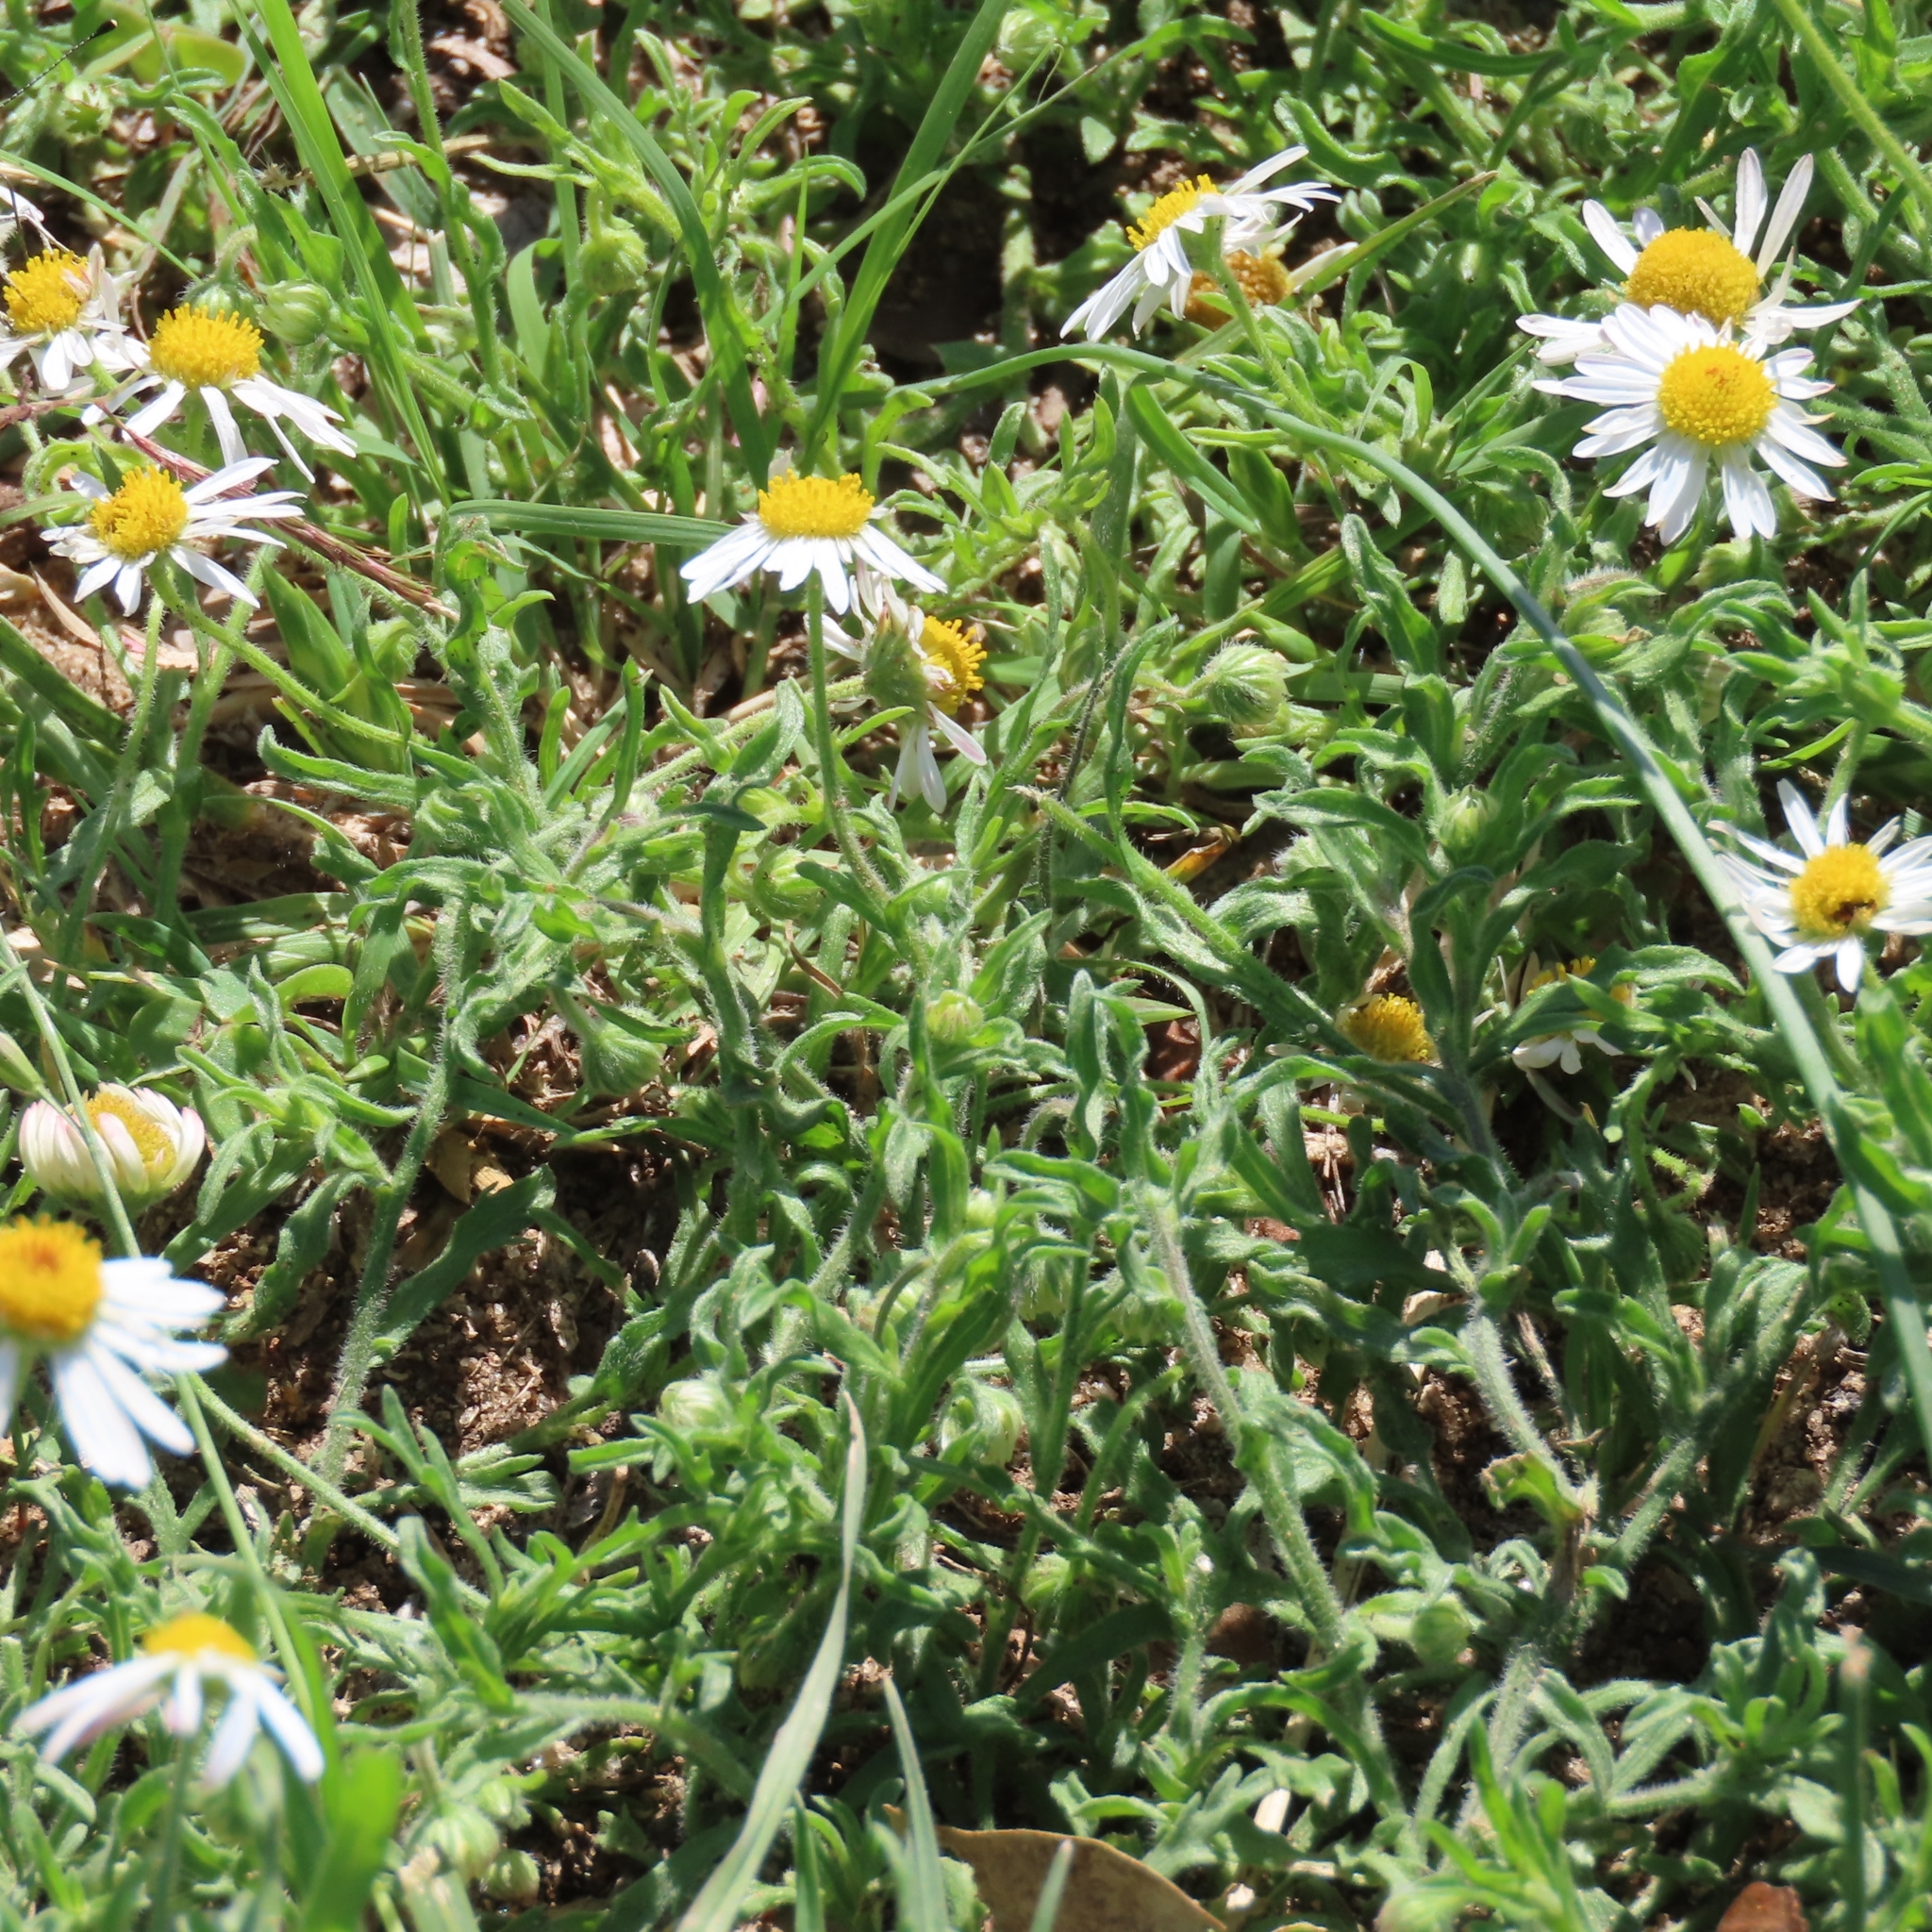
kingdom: Plantae
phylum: Tracheophyta
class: Magnoliopsida
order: Asterales
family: Asteraceae
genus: Aphanostephus
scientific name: Aphanostephus ramosissimus
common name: Plains lazy daisy
